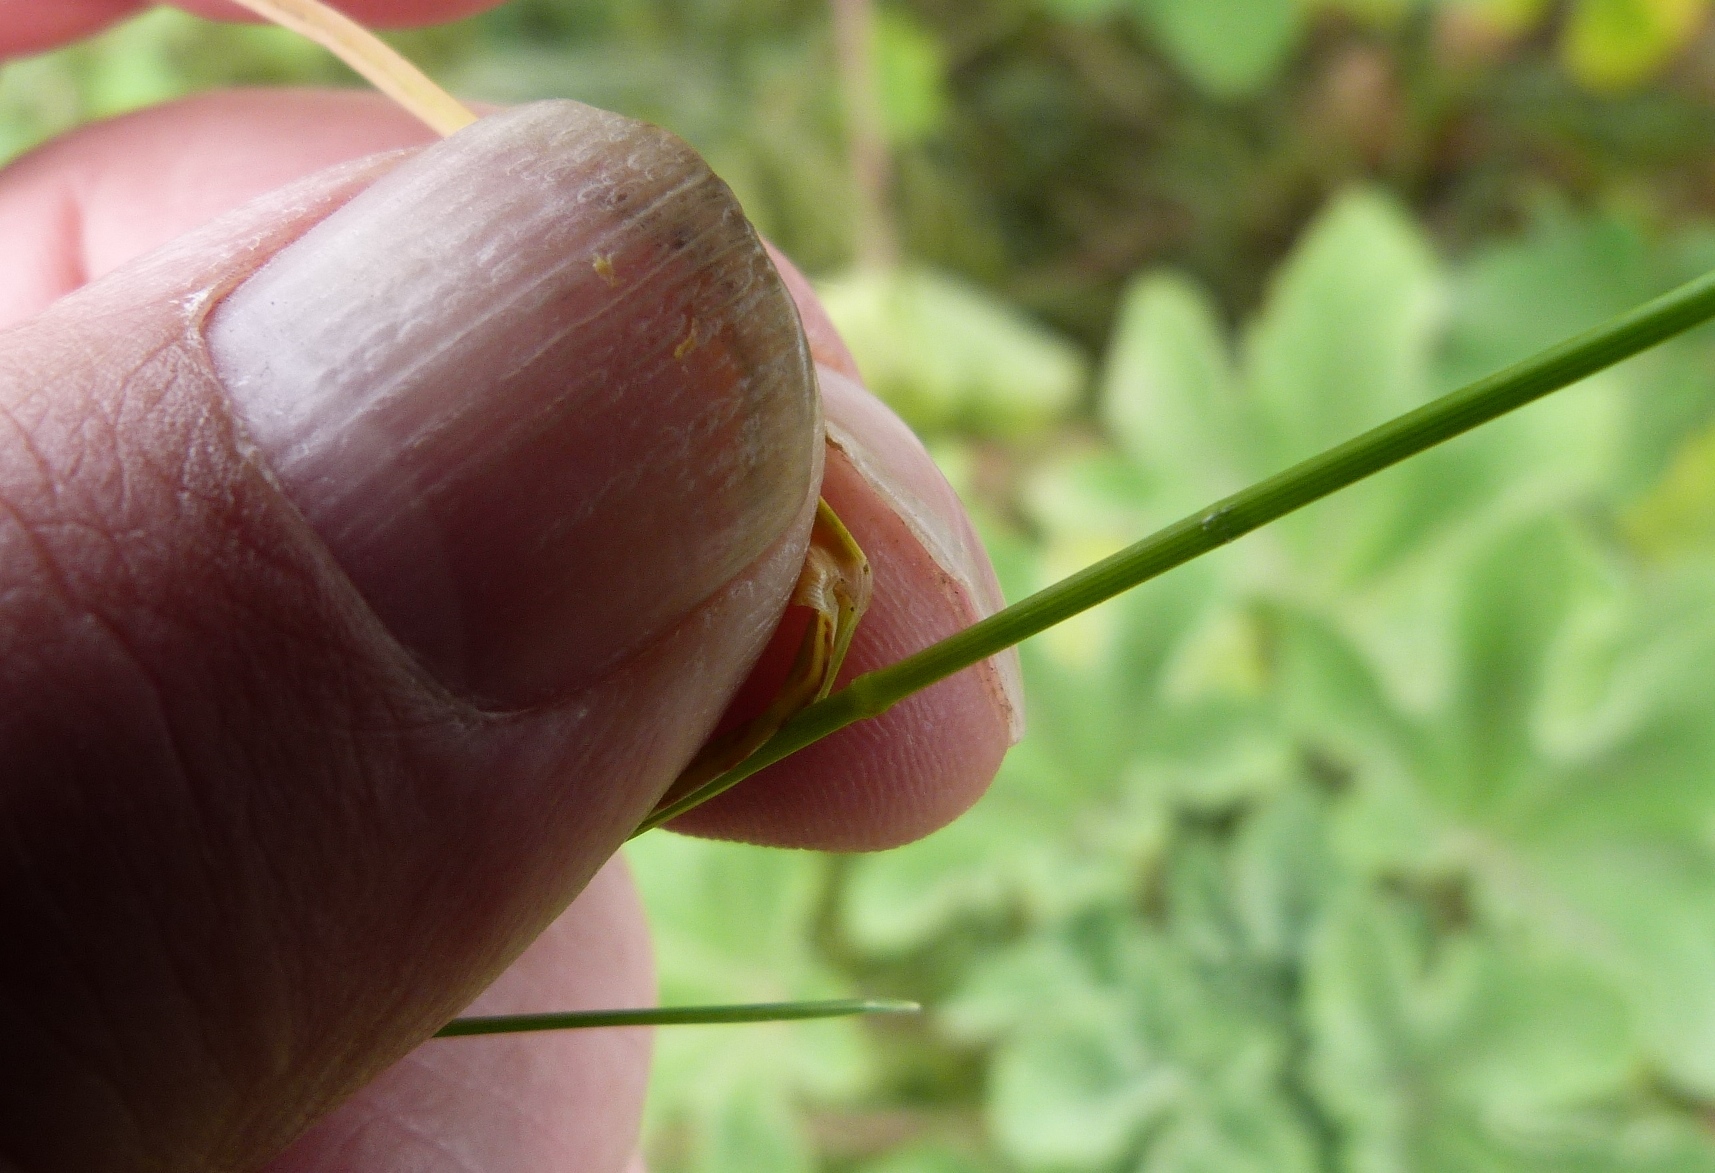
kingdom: Plantae
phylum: Tracheophyta
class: Liliopsida
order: Poales
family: Poaceae
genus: Poa
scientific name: Poa pratensis
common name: Kentucky bluegrass
